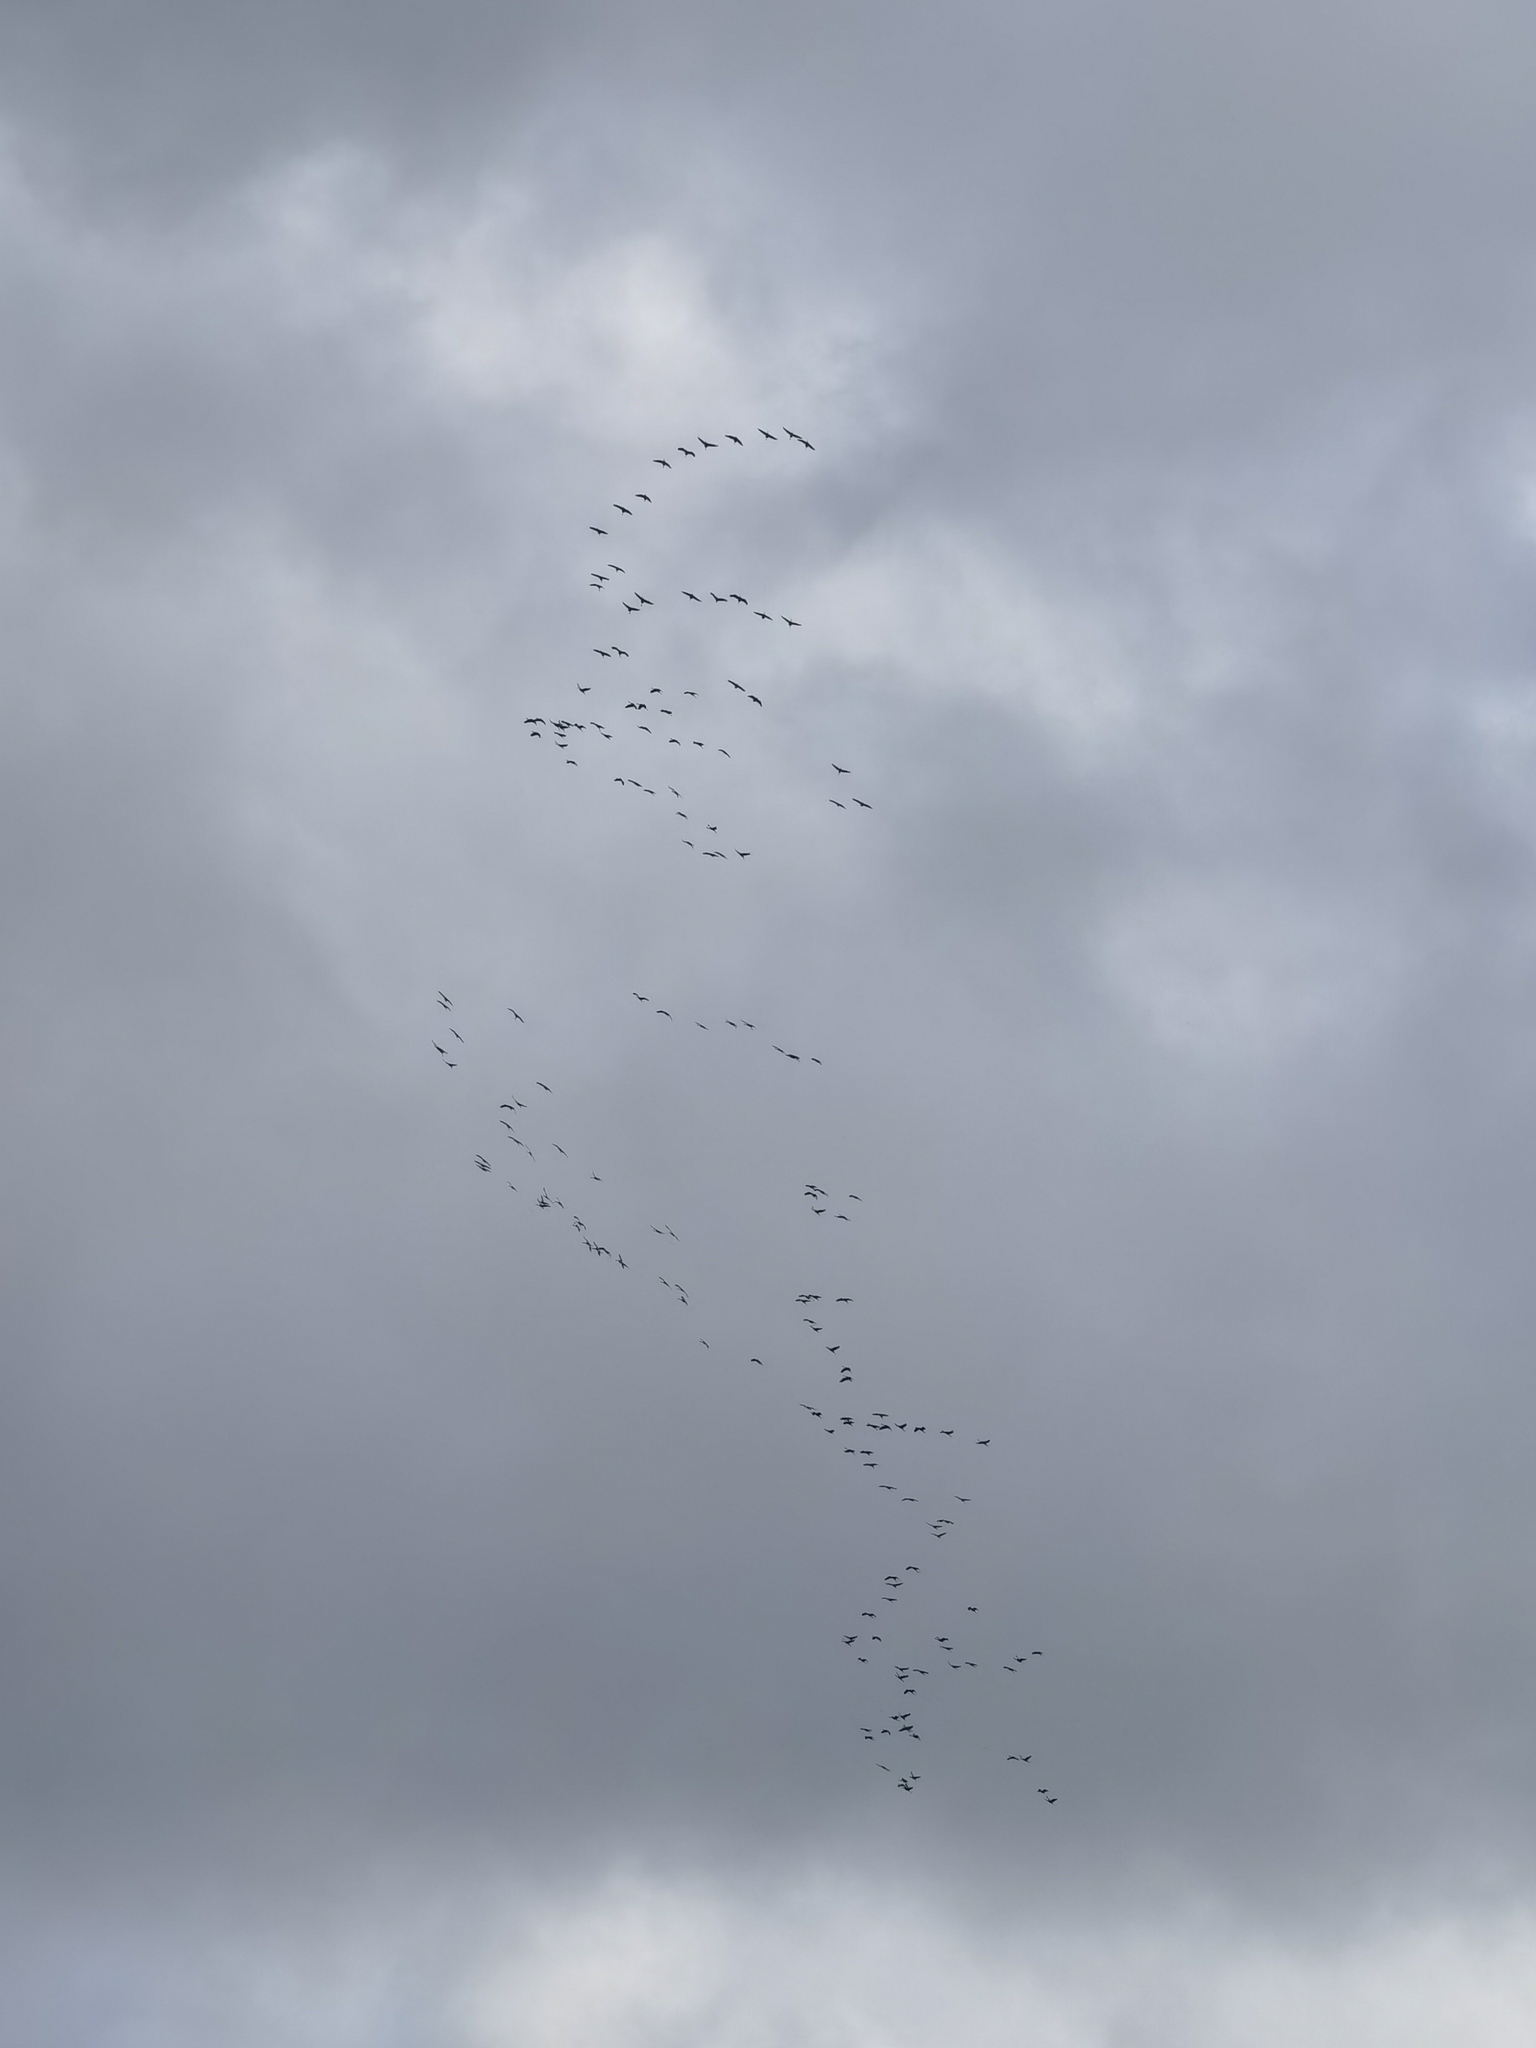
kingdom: Animalia
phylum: Chordata
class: Aves
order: Gruiformes
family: Gruidae
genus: Grus
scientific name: Grus grus
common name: Common crane
